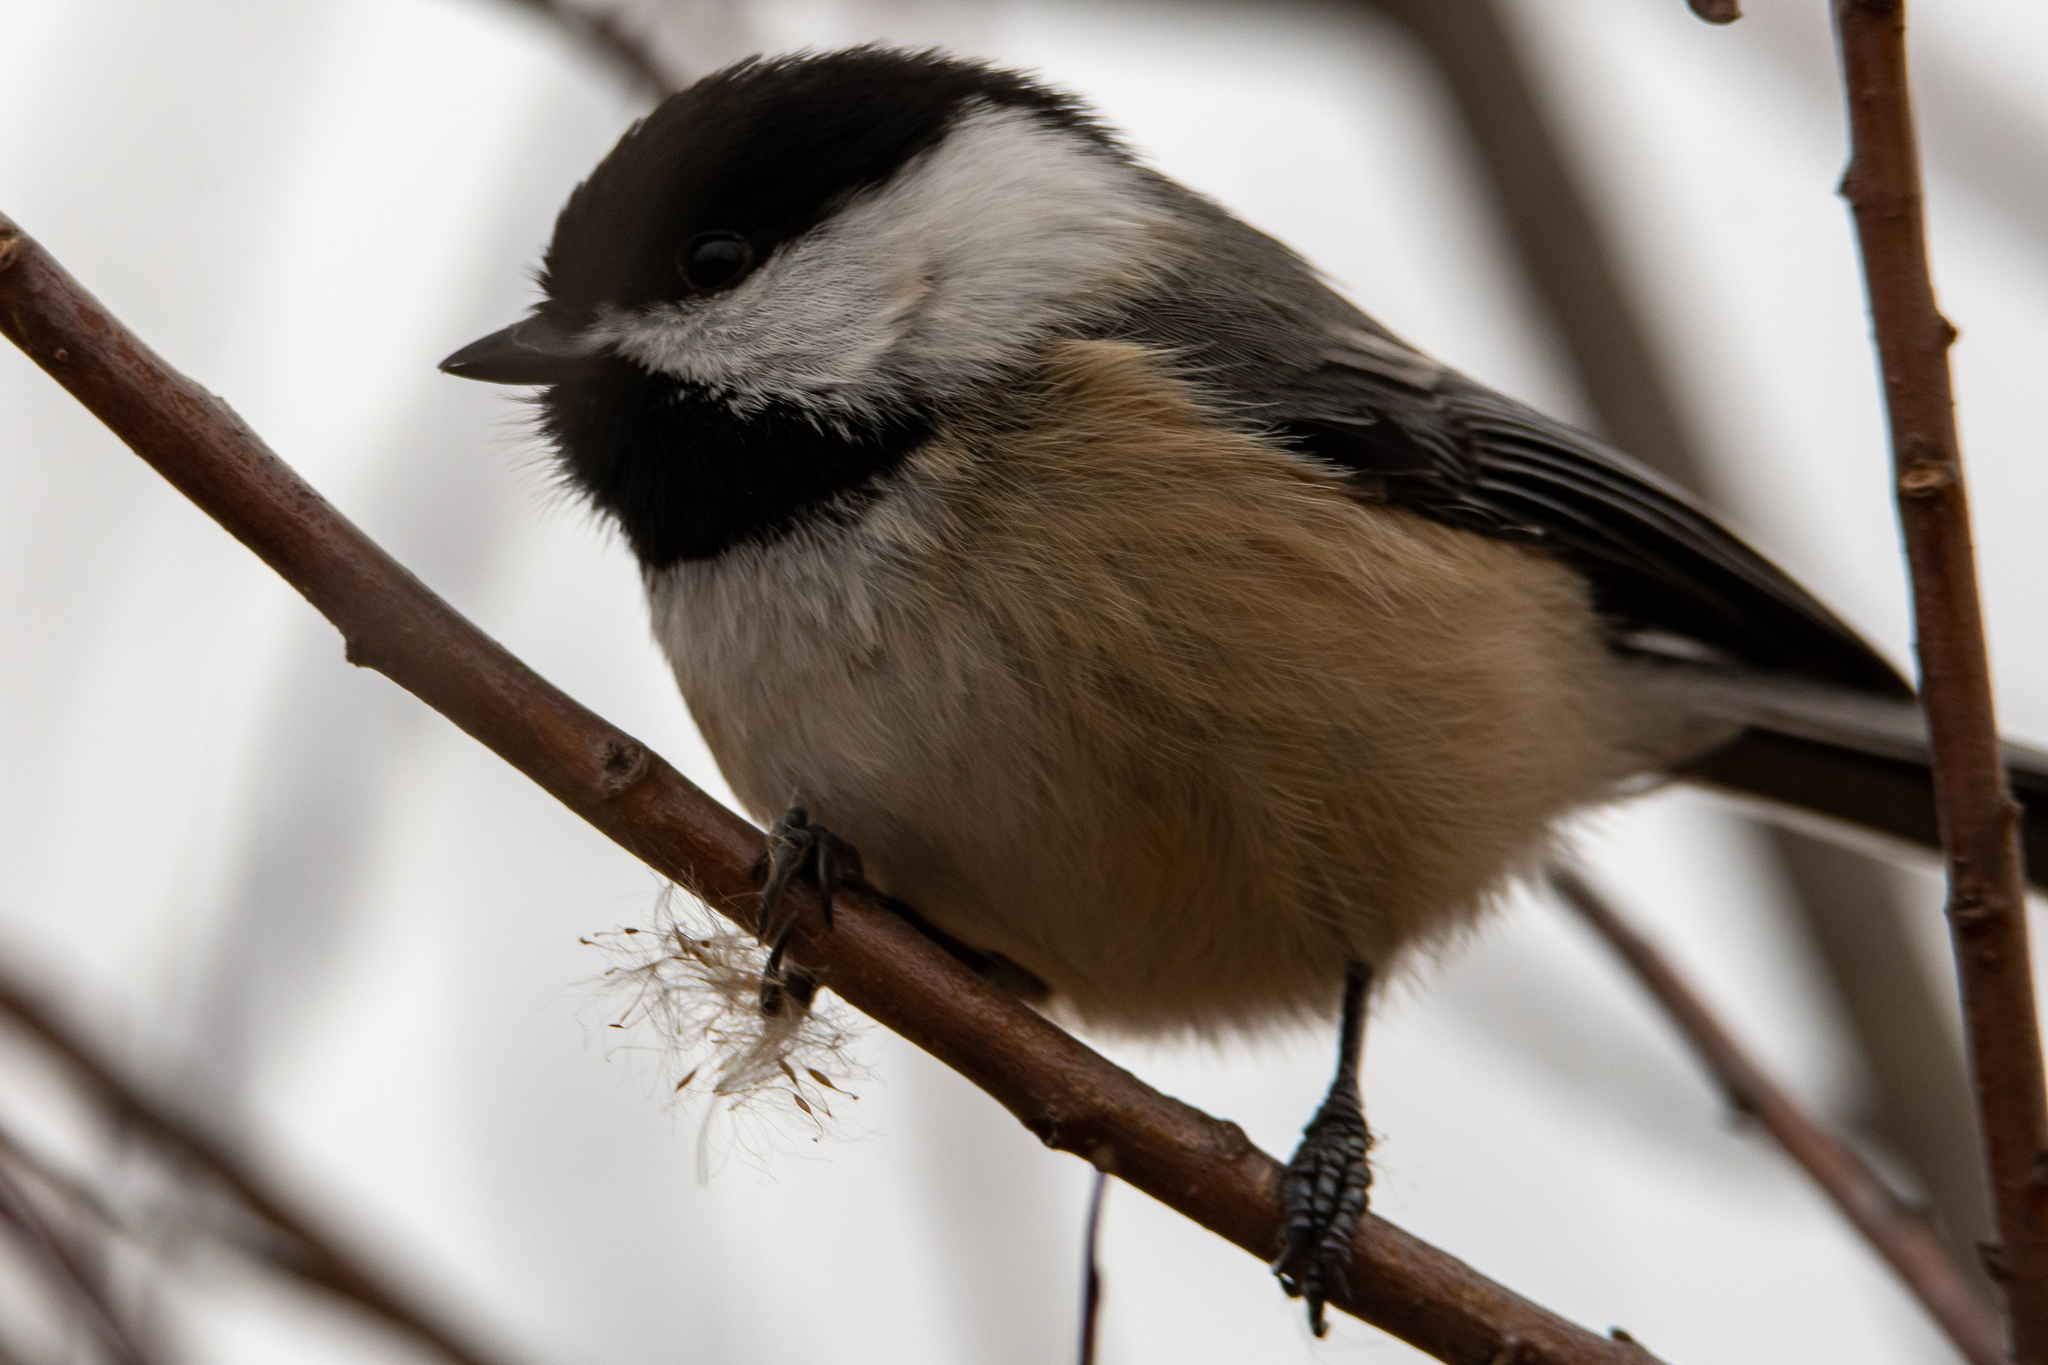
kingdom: Animalia
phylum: Chordata
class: Aves
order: Passeriformes
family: Paridae
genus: Poecile
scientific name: Poecile atricapillus
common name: Black-capped chickadee
